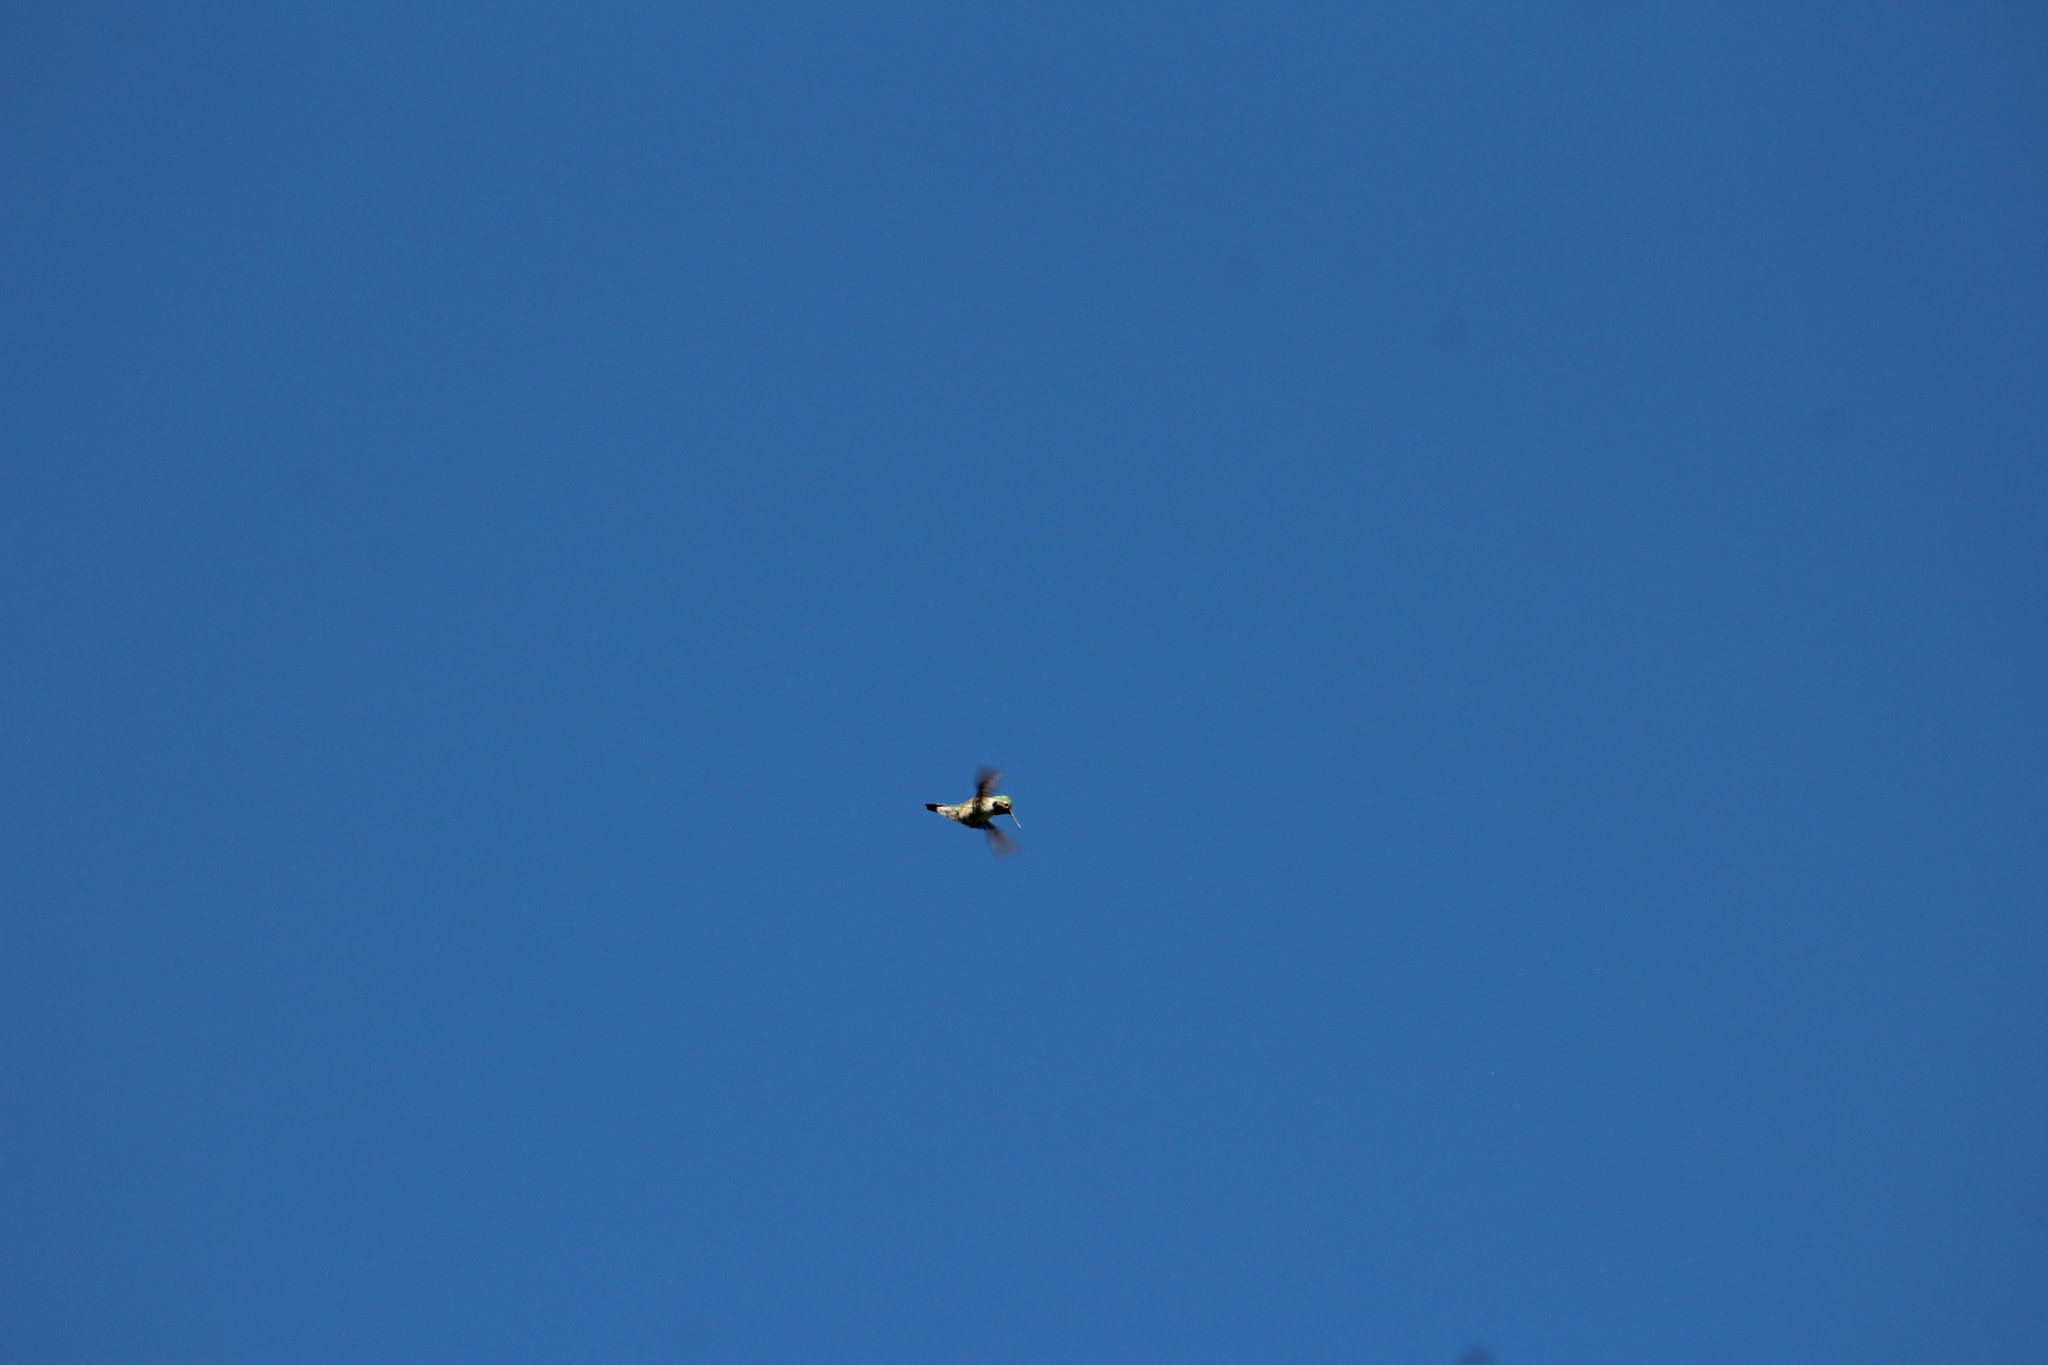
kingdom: Animalia
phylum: Chordata
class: Aves
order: Apodiformes
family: Trochilidae
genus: Selasphorus
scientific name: Selasphorus platycercus
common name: Broad-tailed hummingbird
